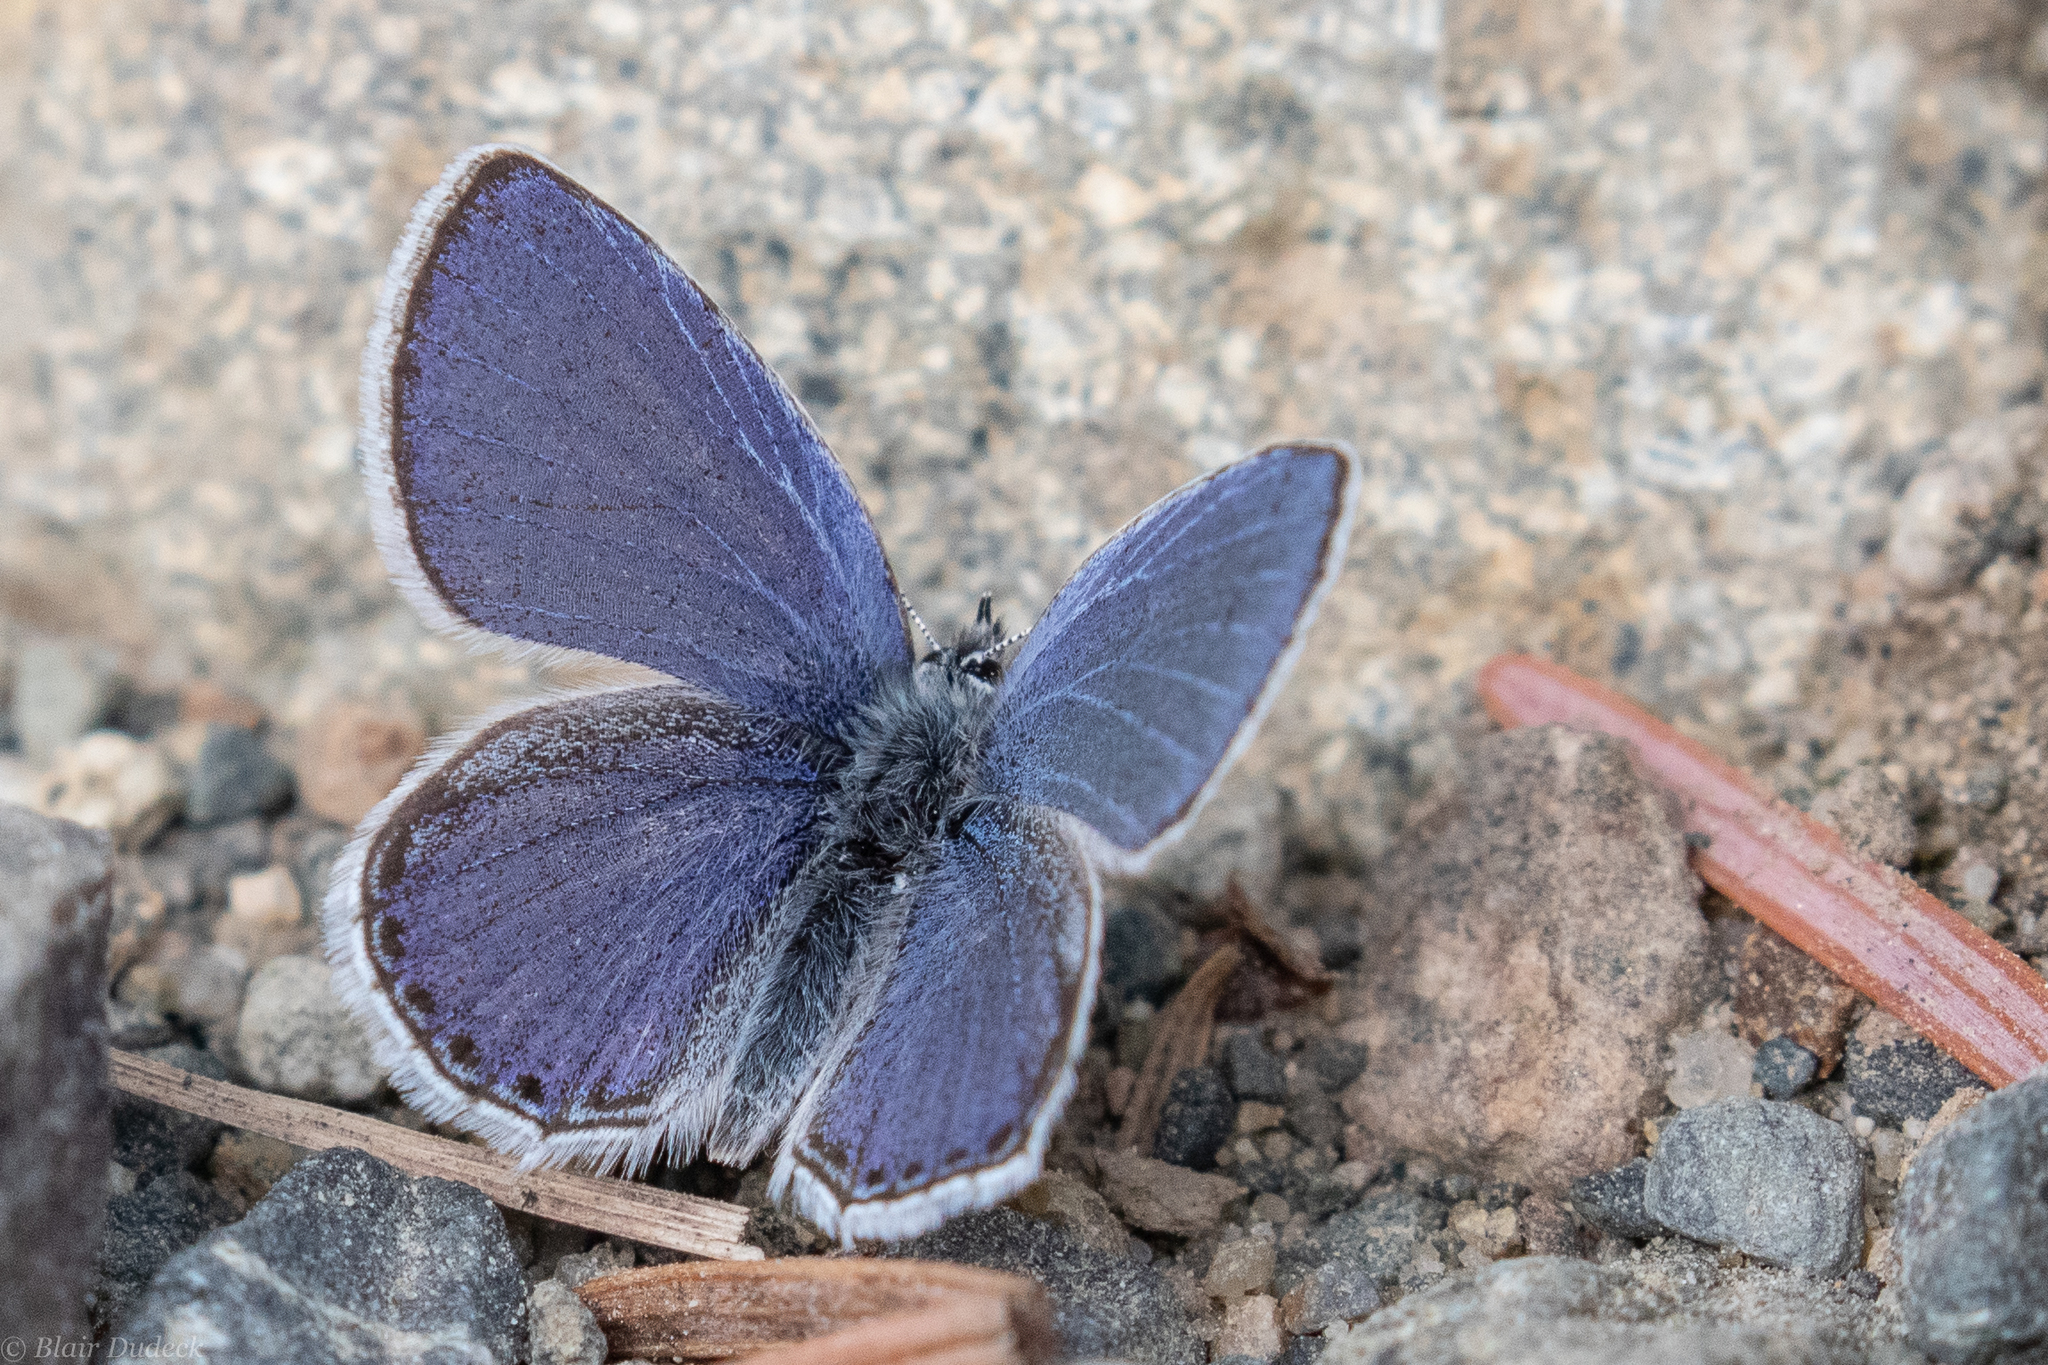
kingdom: Animalia
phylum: Arthropoda
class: Insecta
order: Lepidoptera
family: Lycaenidae
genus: Elkalyce
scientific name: Elkalyce amyntula
